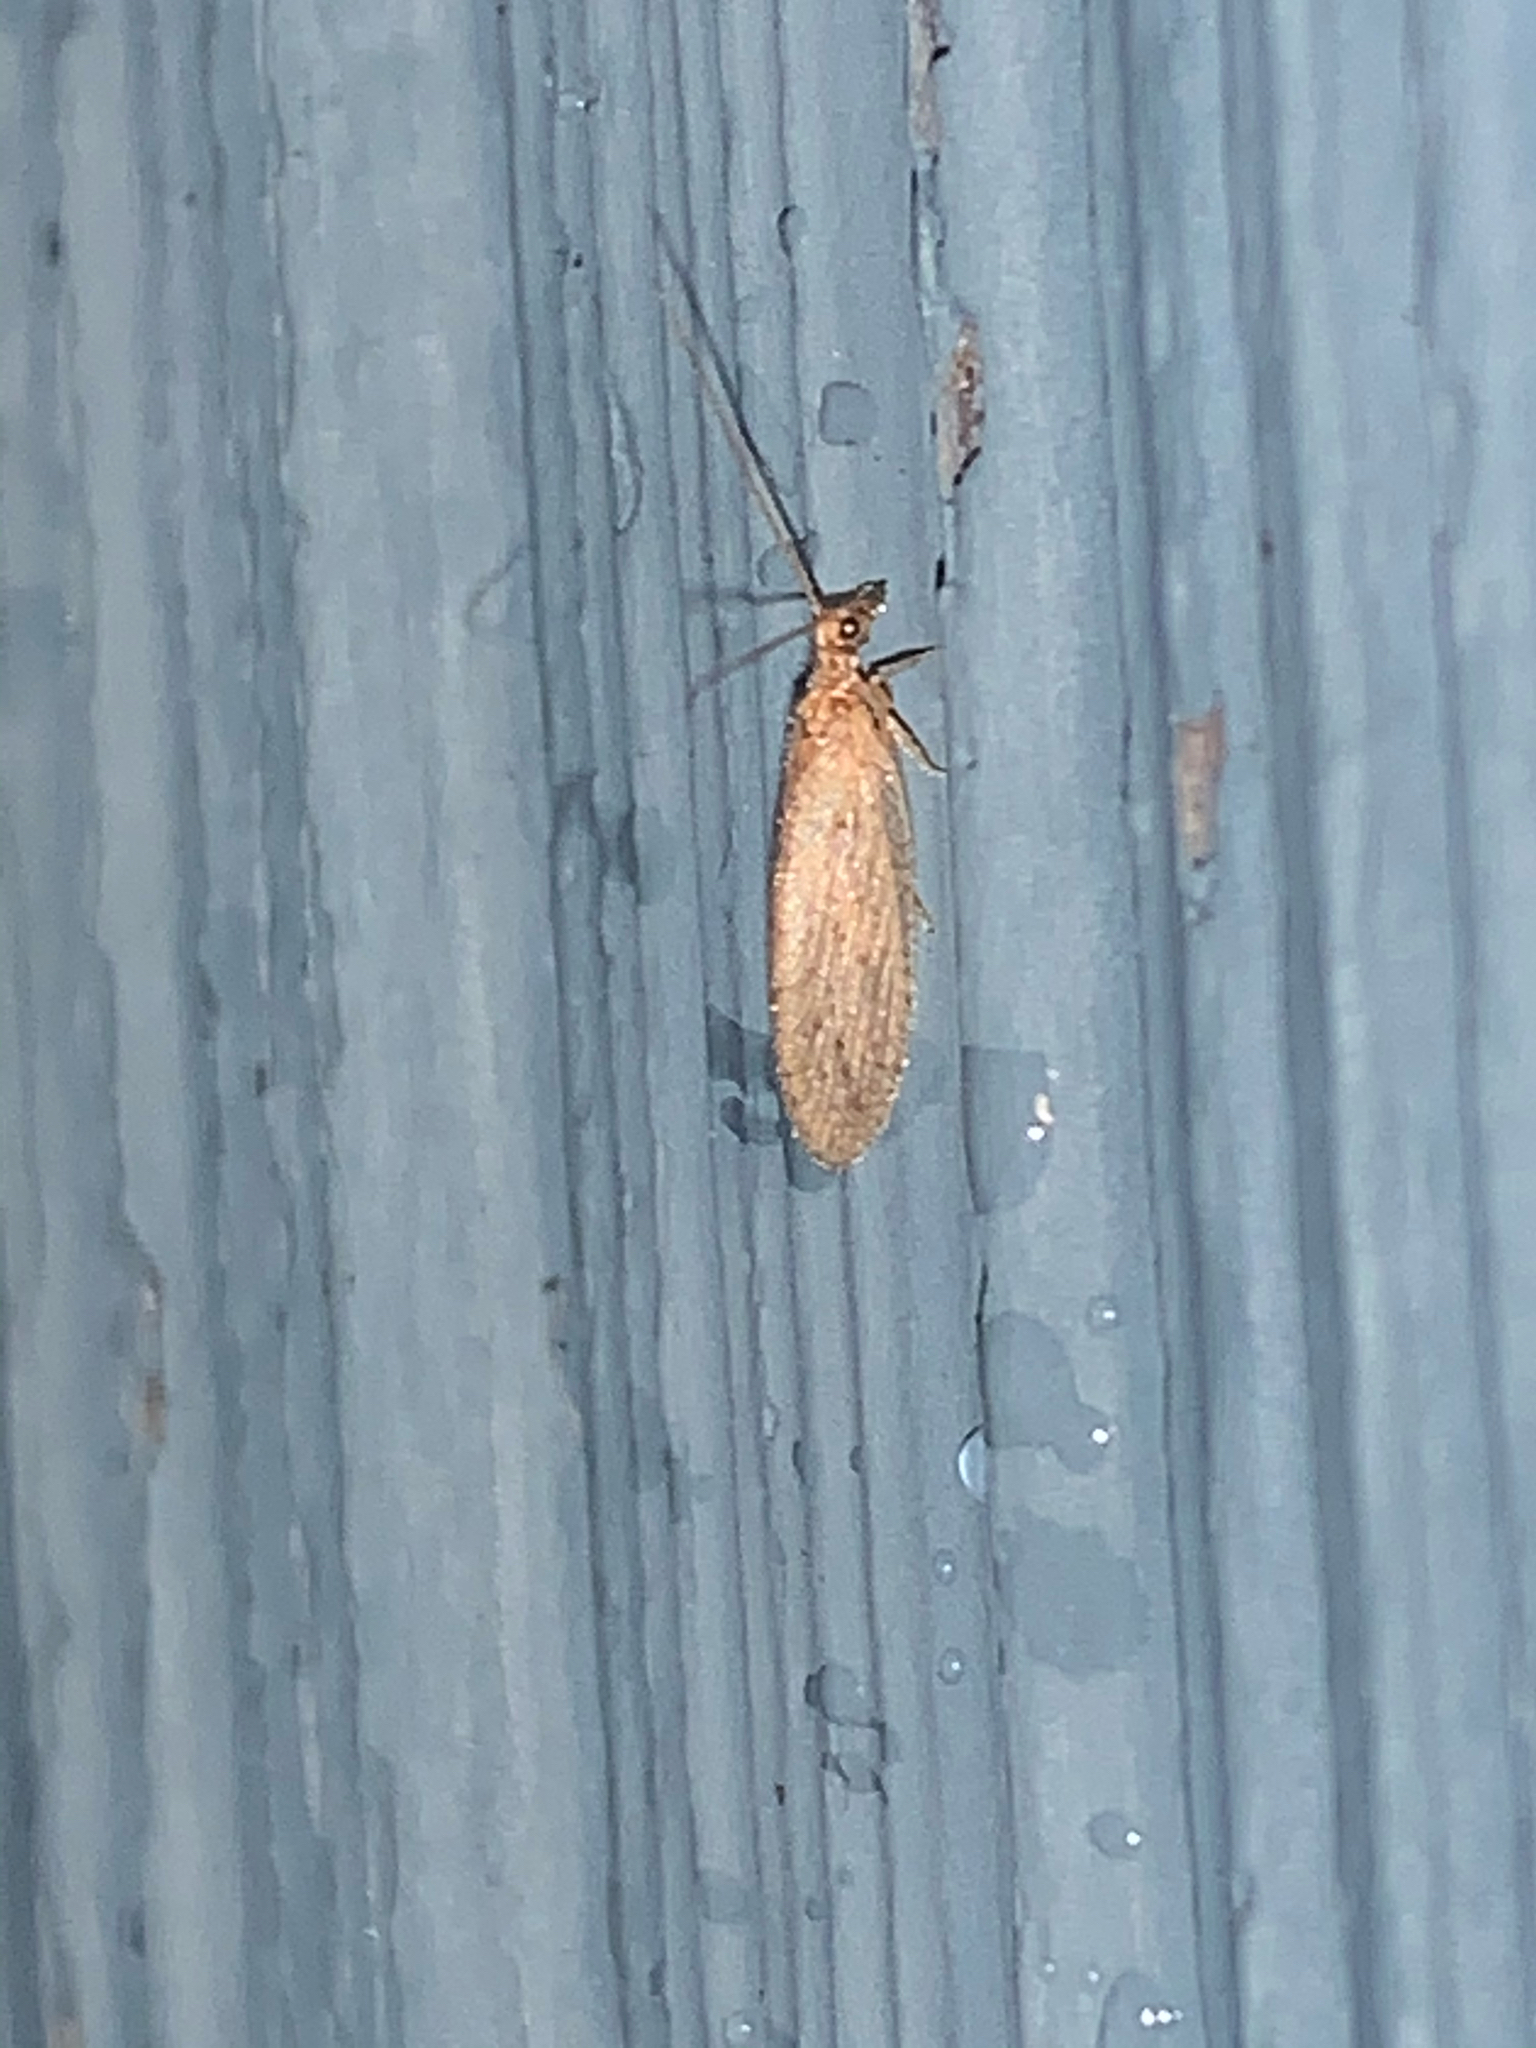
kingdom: Animalia
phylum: Arthropoda
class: Insecta
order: Neuroptera
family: Hemerobiidae
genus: Micromus
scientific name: Micromus subanticus
